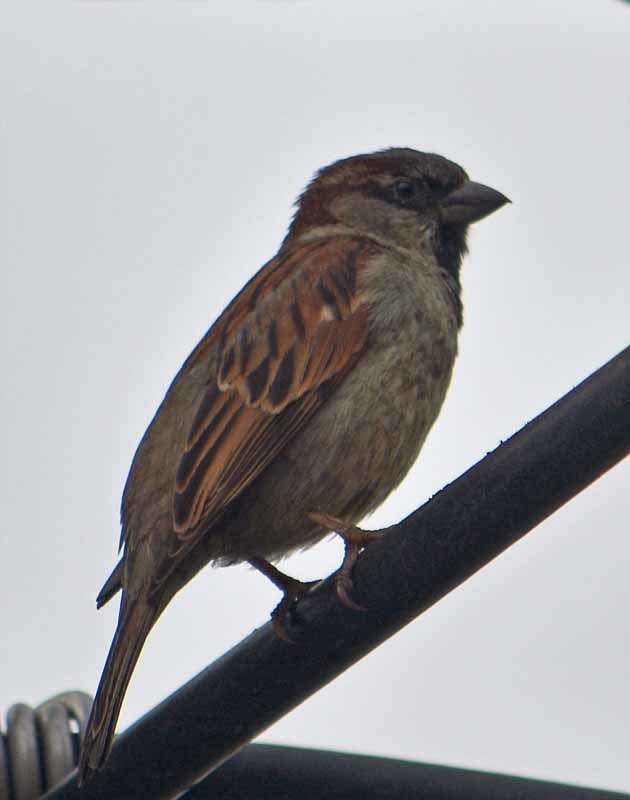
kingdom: Animalia
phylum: Chordata
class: Aves
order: Passeriformes
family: Passeridae
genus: Passer
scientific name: Passer domesticus
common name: House sparrow
